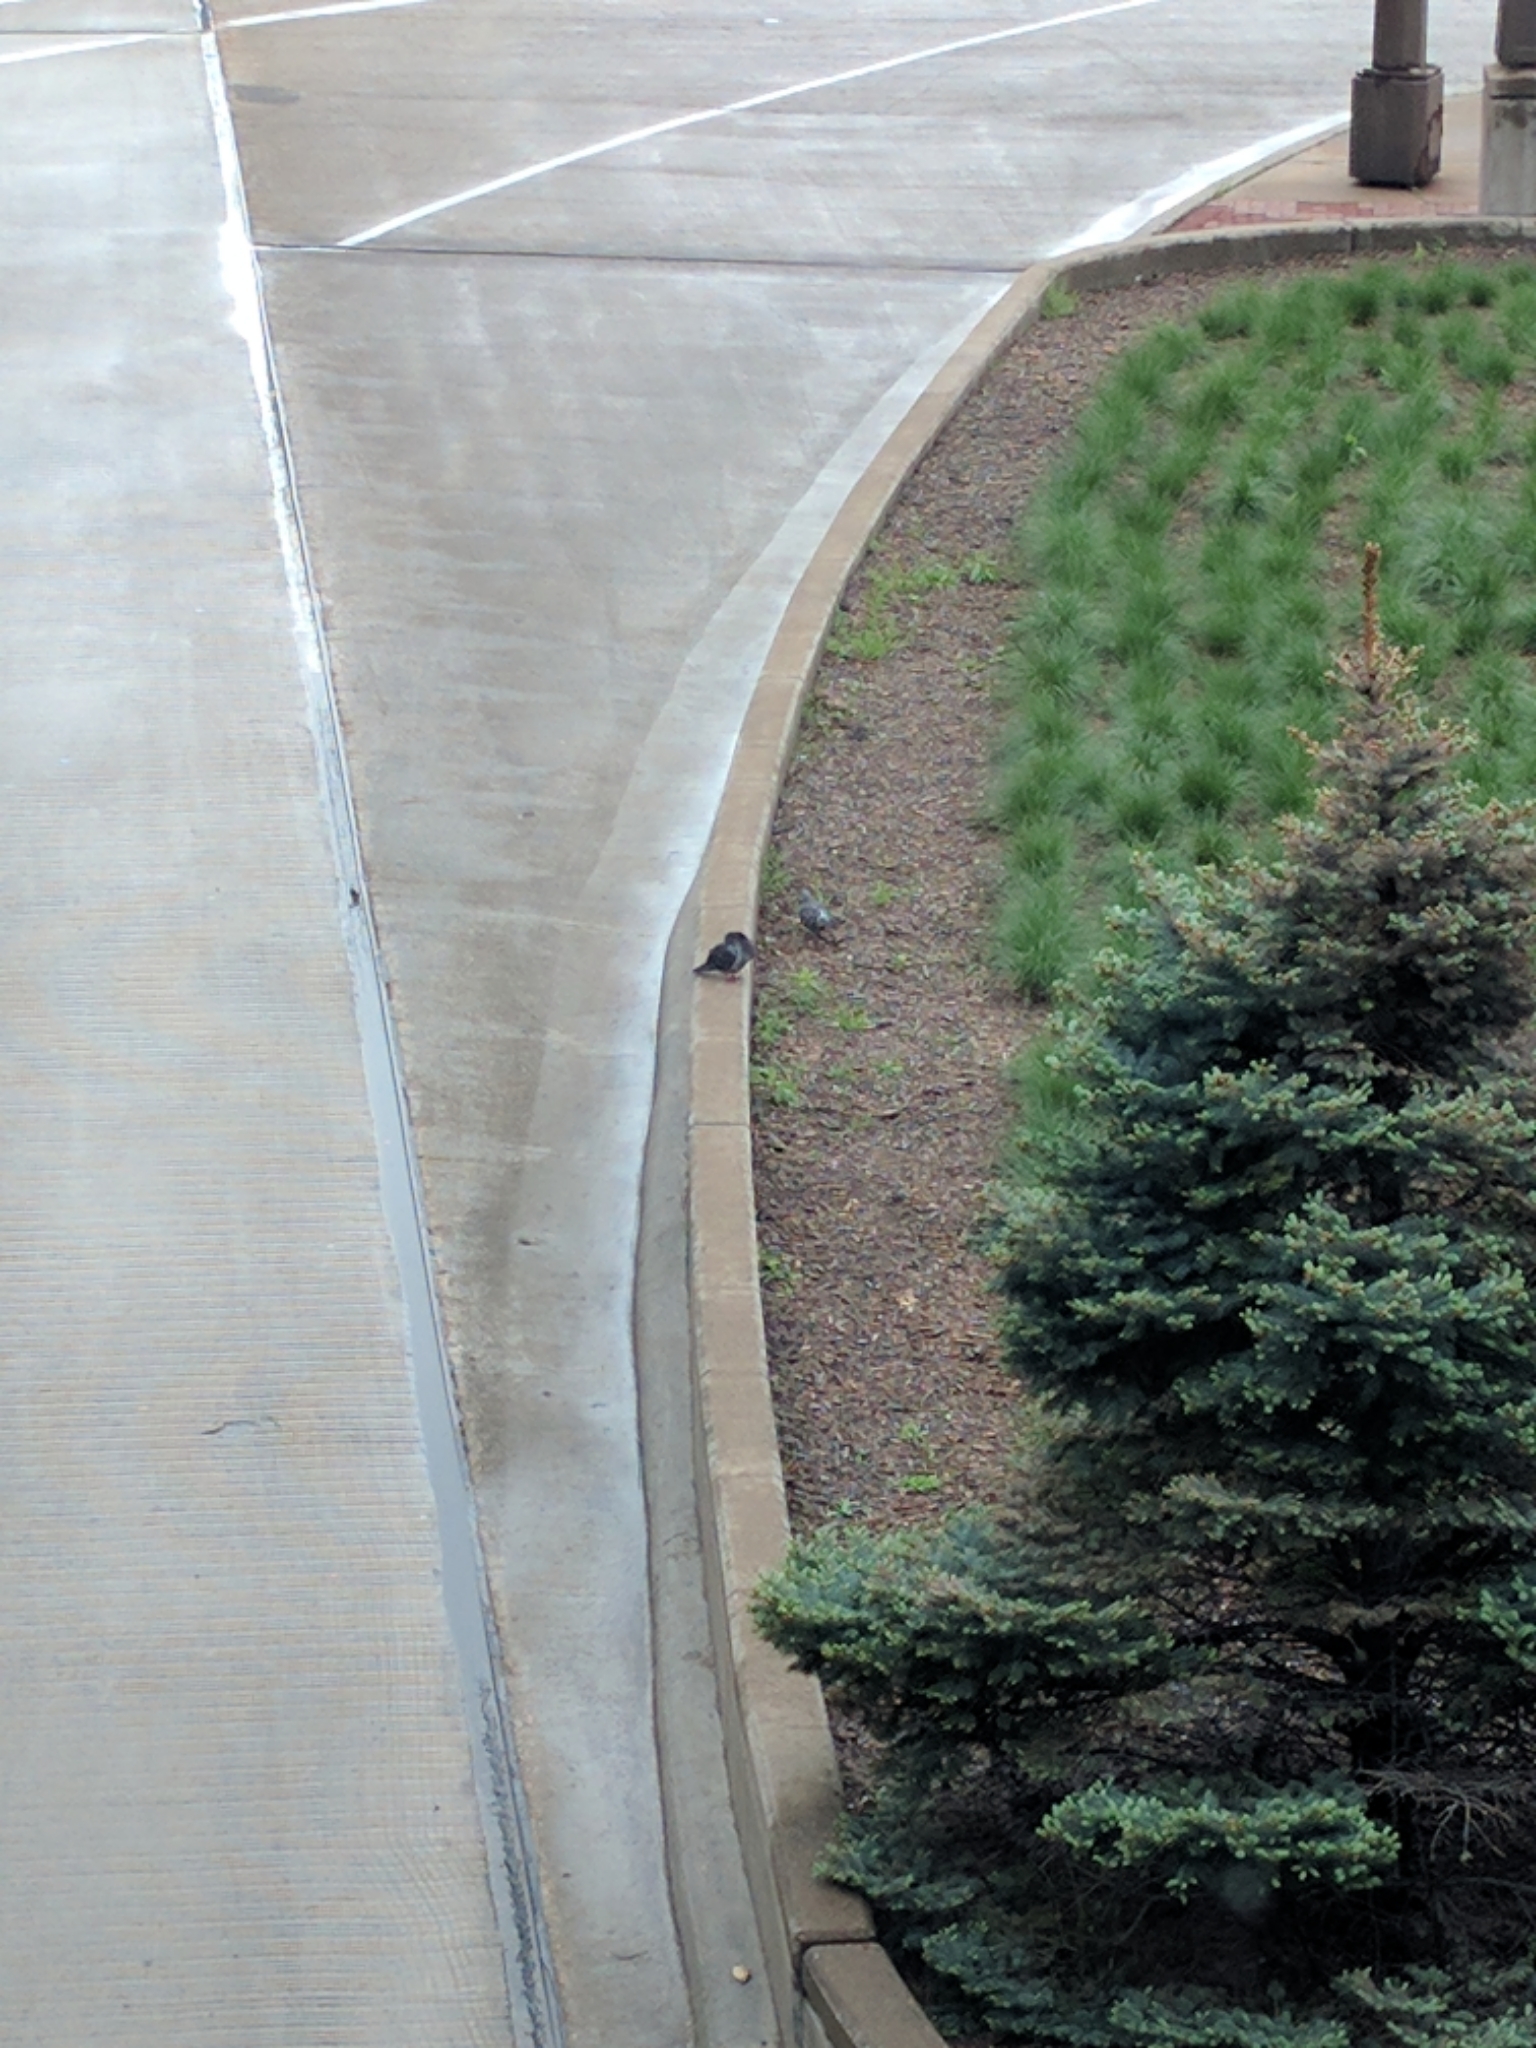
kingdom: Animalia
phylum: Chordata
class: Aves
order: Columbiformes
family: Columbidae
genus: Columba
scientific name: Columba livia
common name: Rock pigeon
